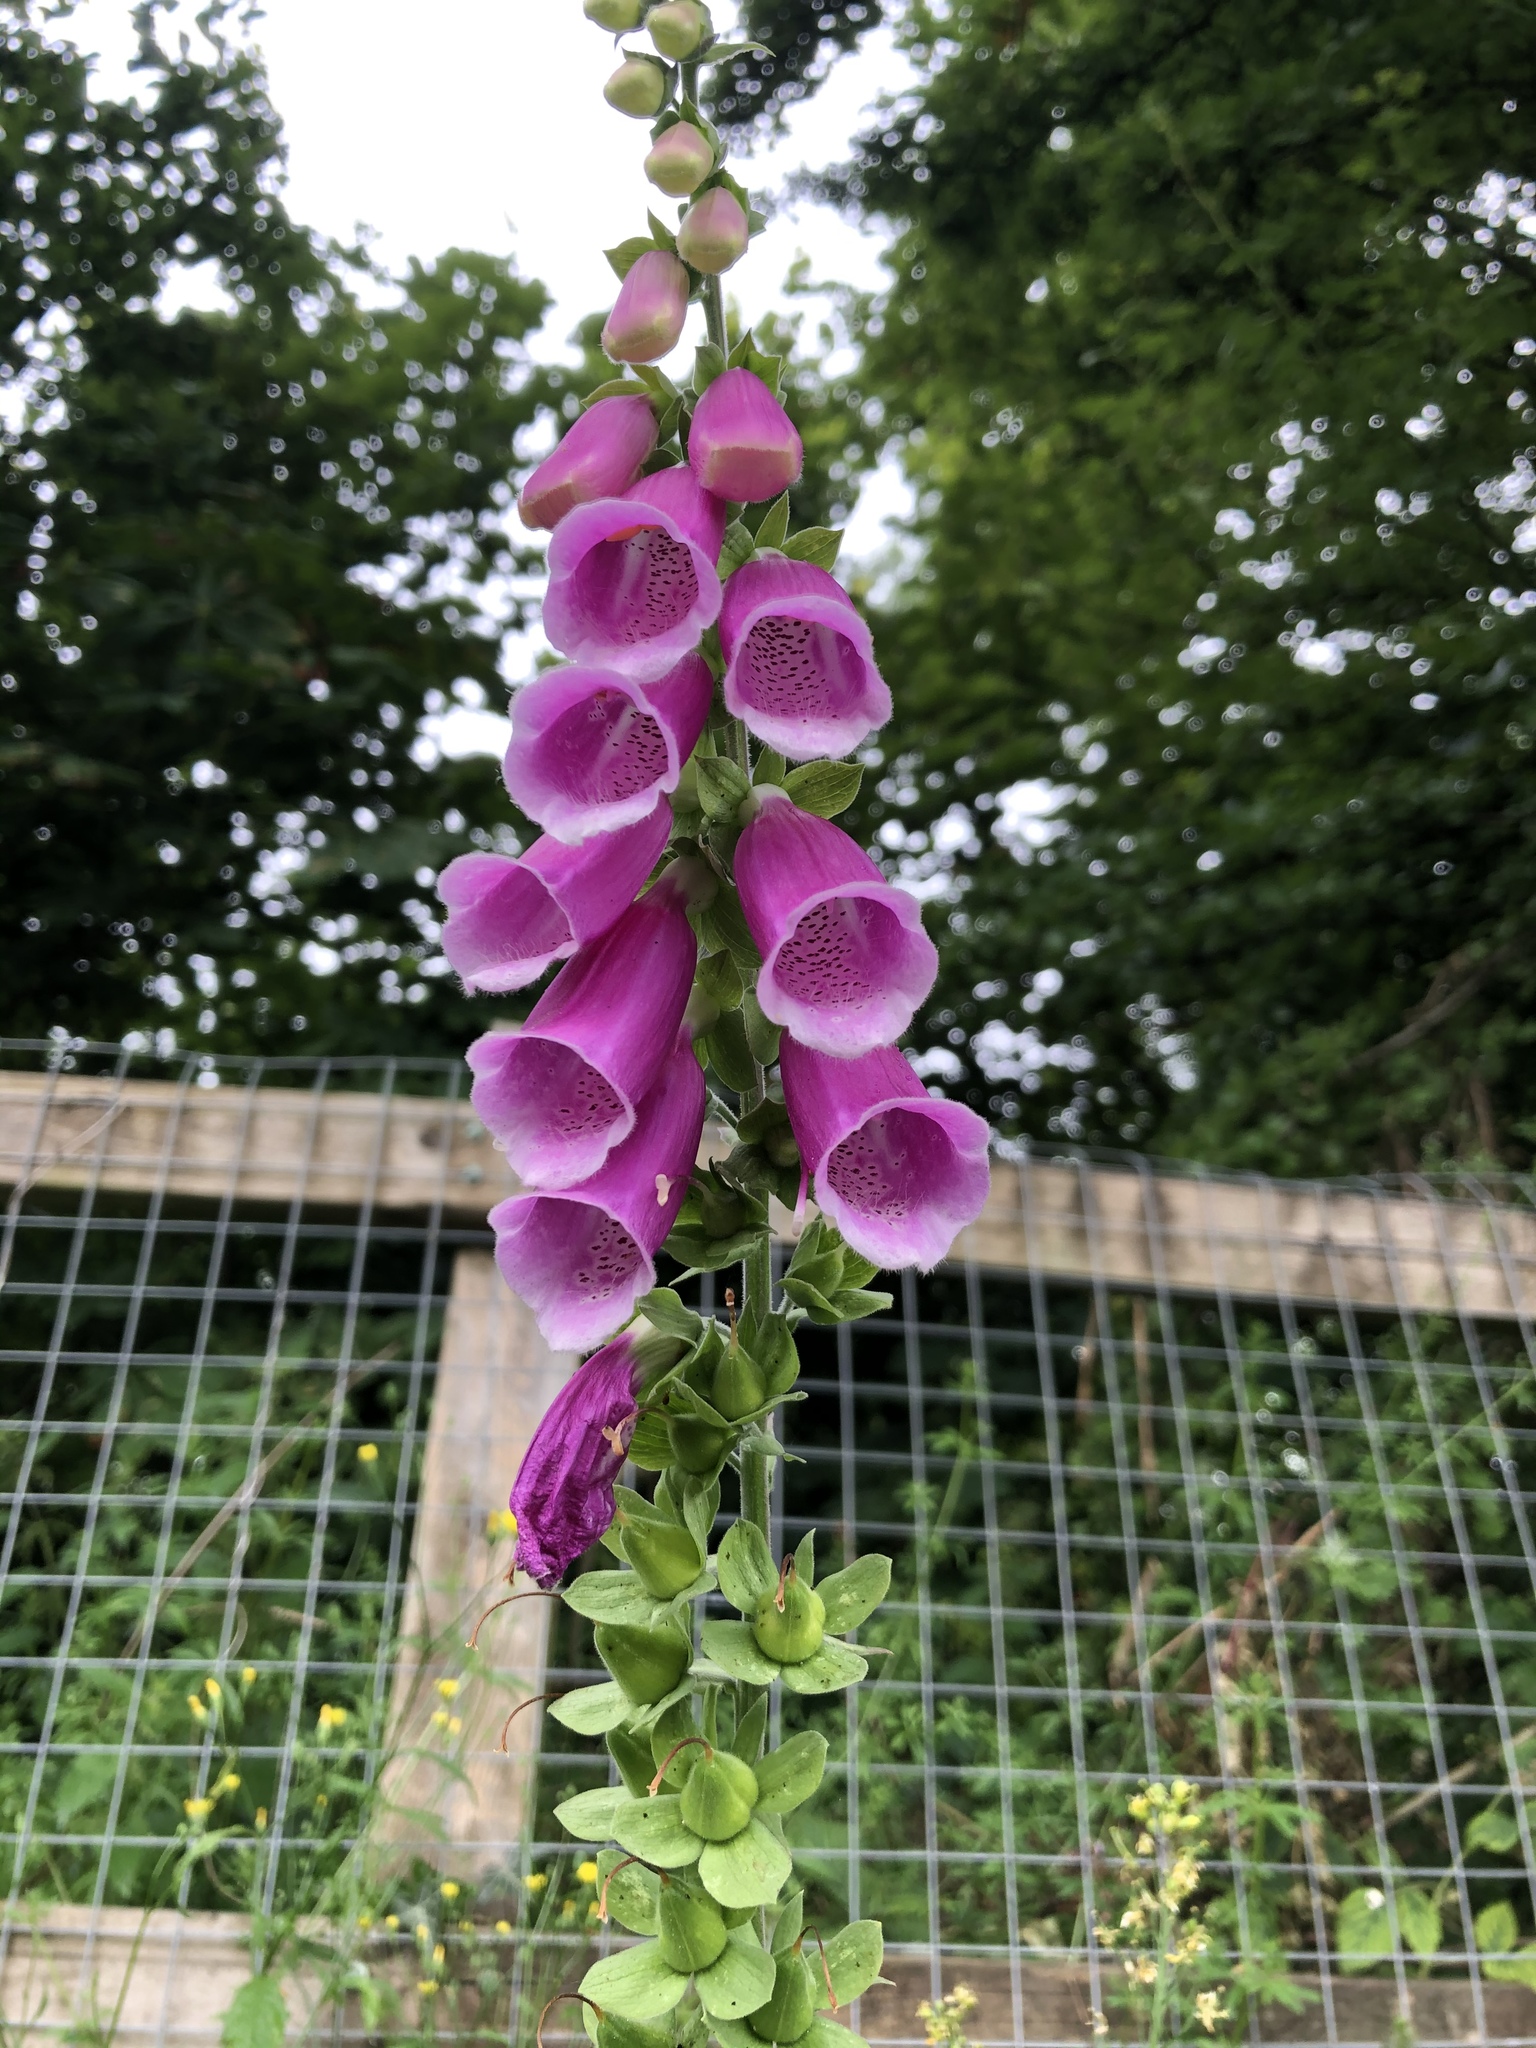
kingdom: Plantae
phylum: Tracheophyta
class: Magnoliopsida
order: Lamiales
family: Plantaginaceae
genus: Digitalis
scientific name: Digitalis purpurea
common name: Foxglove
